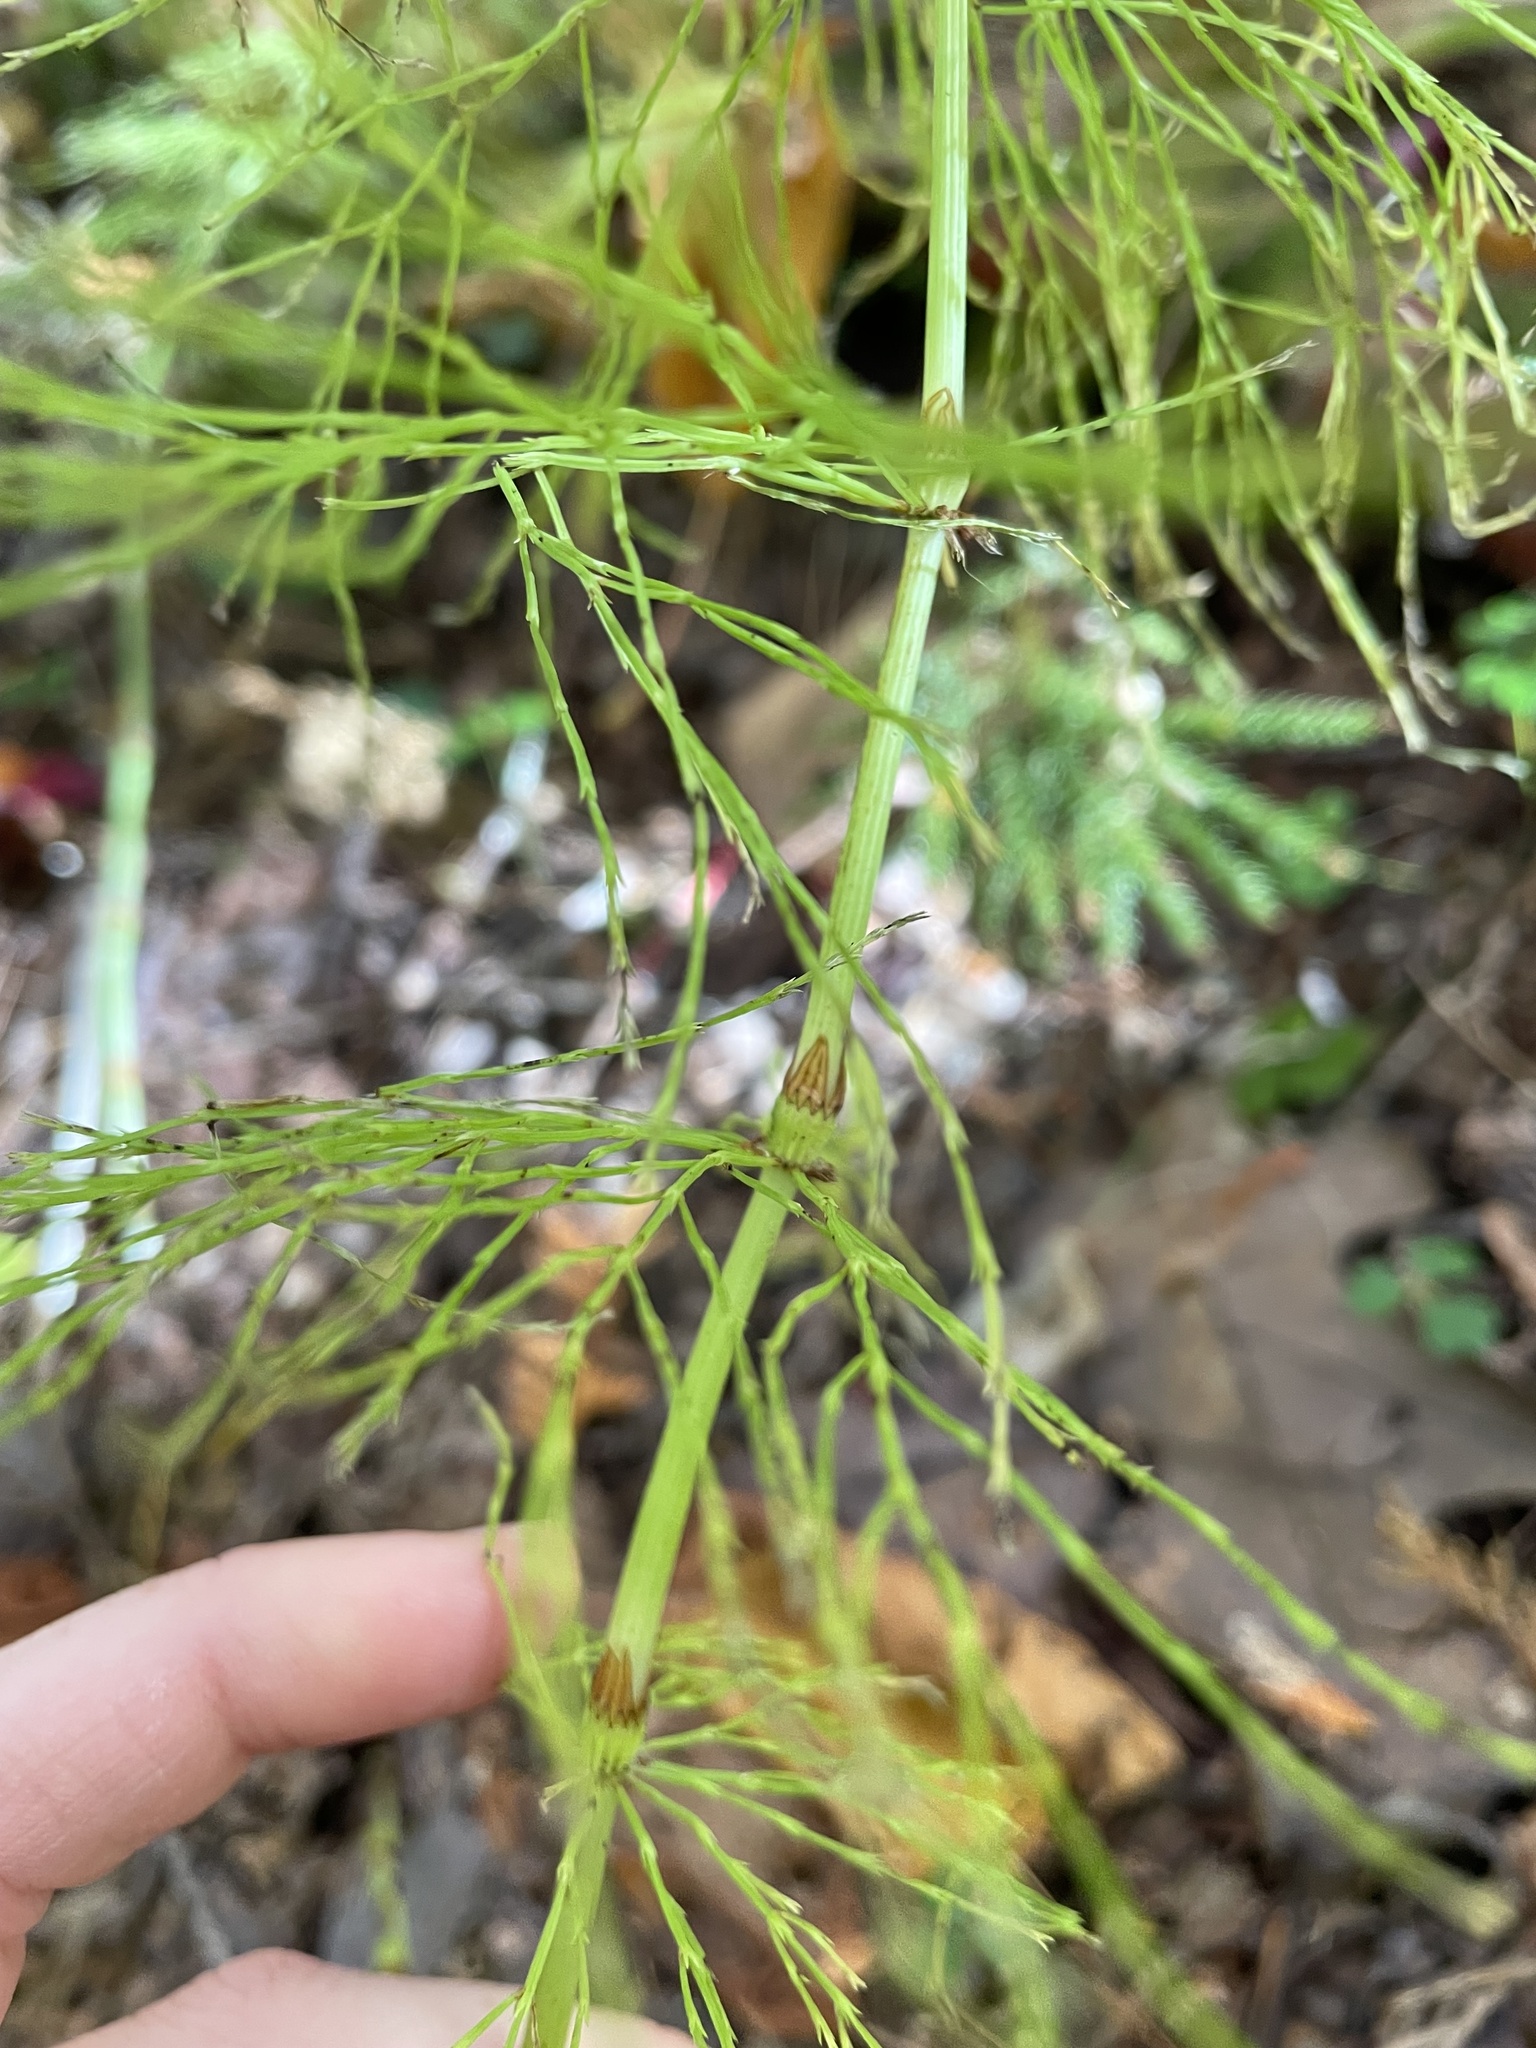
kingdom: Plantae
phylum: Tracheophyta
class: Polypodiopsida
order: Equisetales
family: Equisetaceae
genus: Equisetum
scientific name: Equisetum sylvaticum
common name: Wood horsetail
